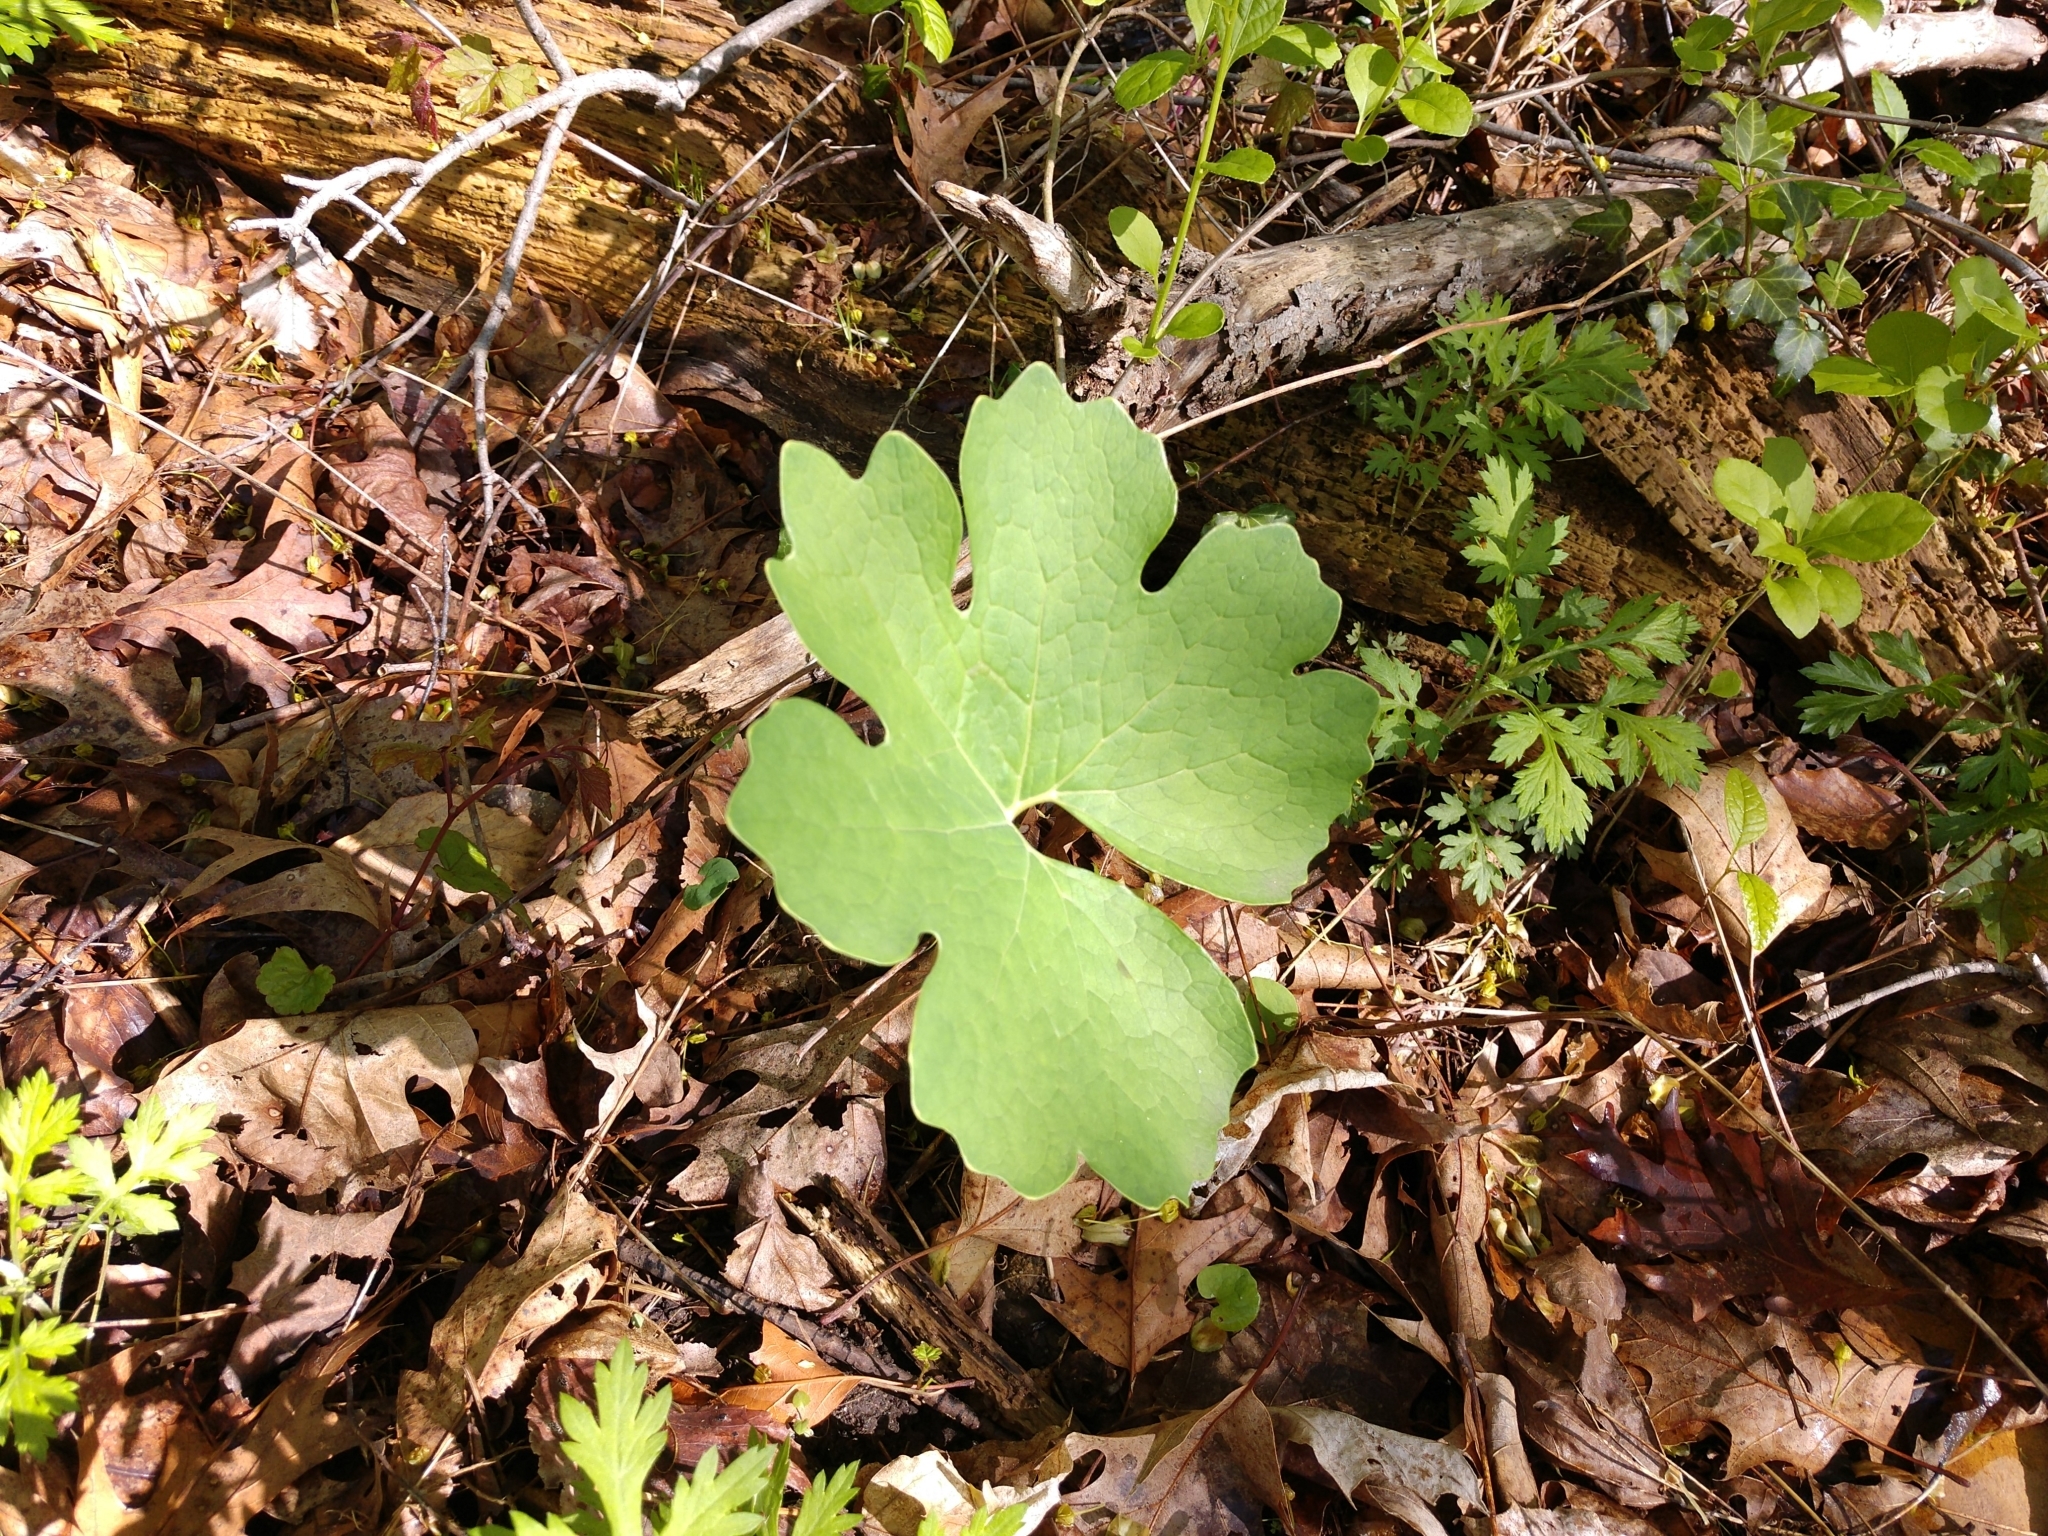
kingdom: Plantae
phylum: Tracheophyta
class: Magnoliopsida
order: Ranunculales
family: Papaveraceae
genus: Sanguinaria
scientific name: Sanguinaria canadensis
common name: Bloodroot
